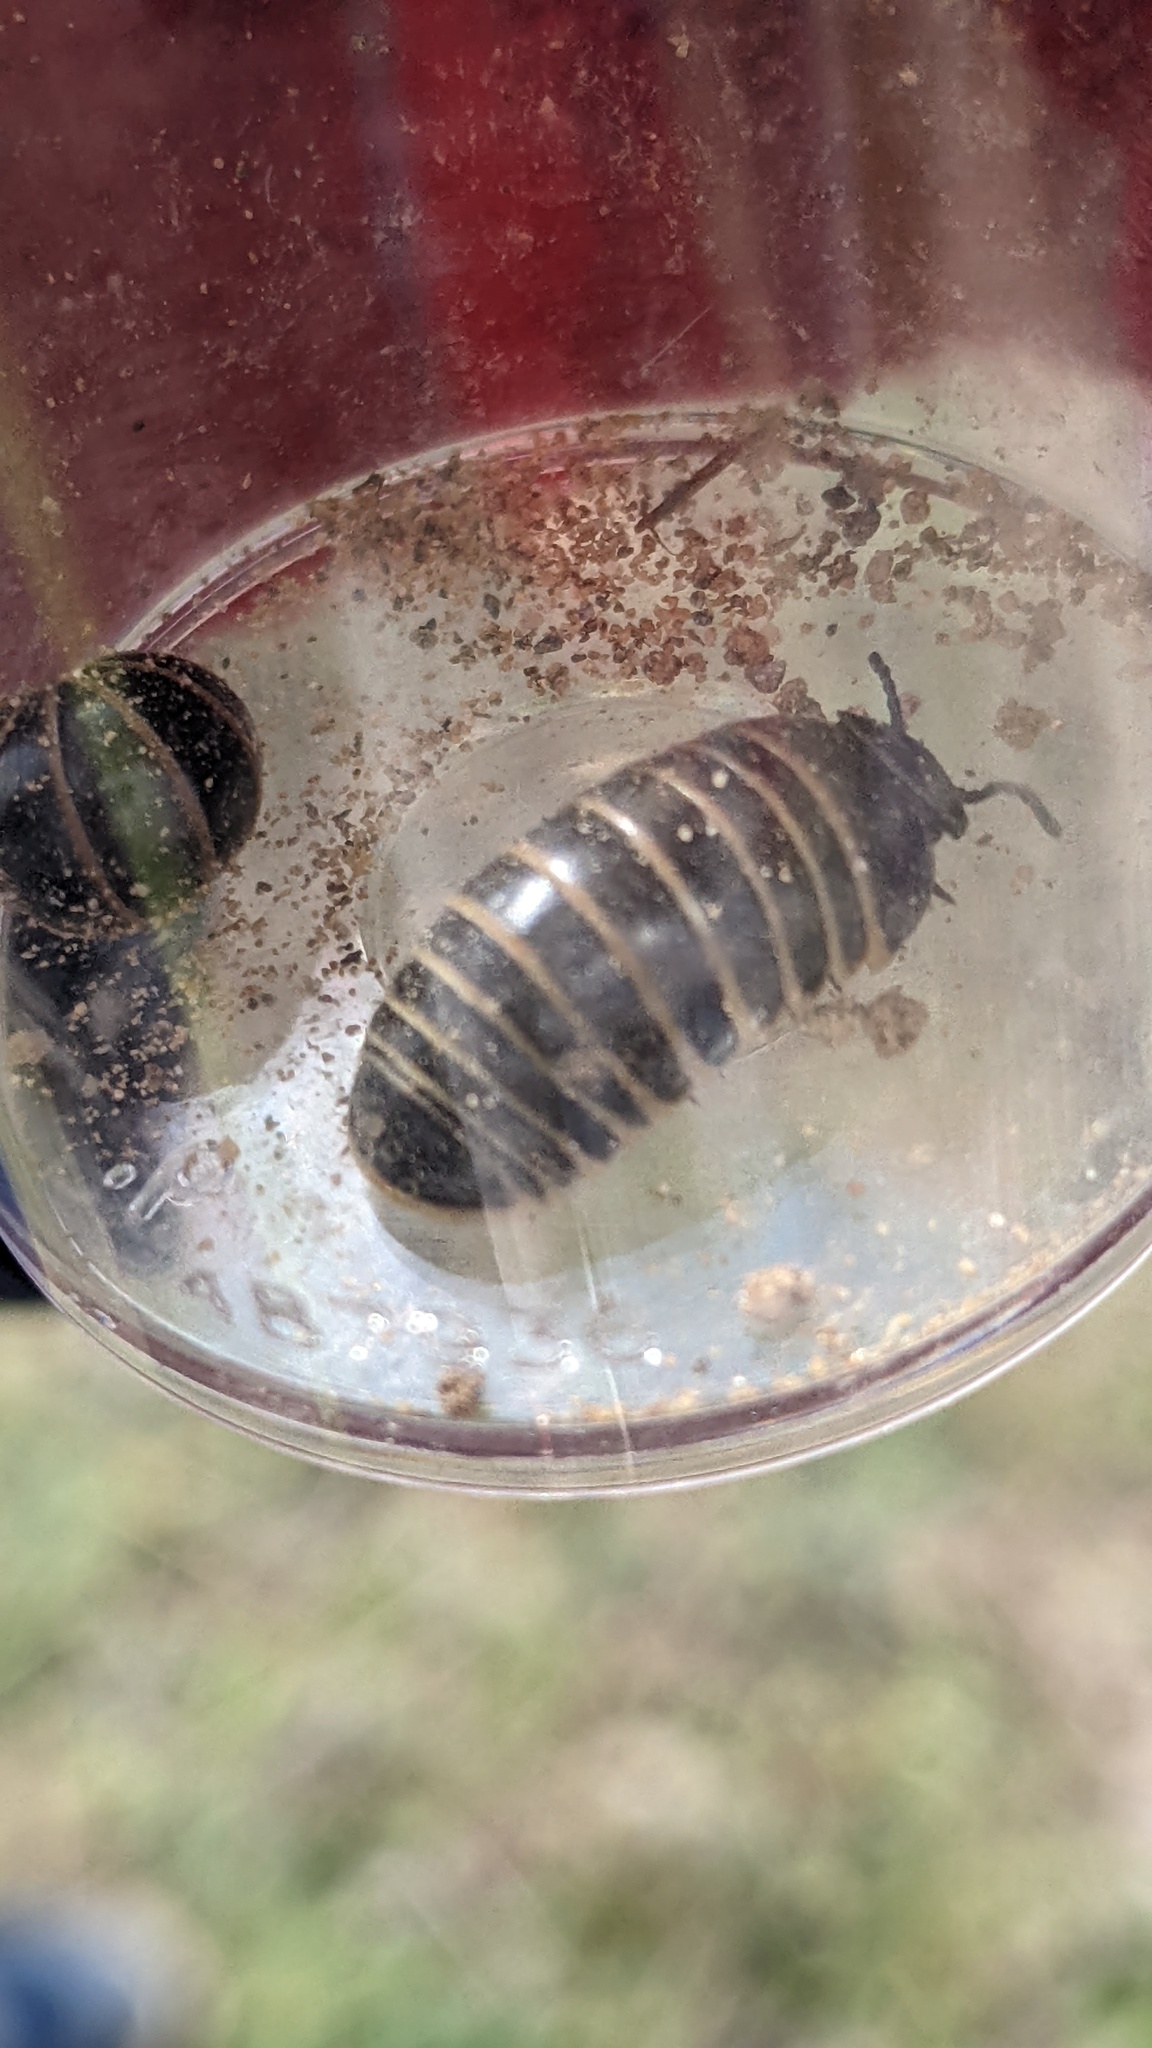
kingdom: Animalia
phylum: Arthropoda
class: Diplopoda
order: Glomerida
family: Glomeridae
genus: Glomeris
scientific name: Glomeris marginata
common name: Bordered pill millipede
